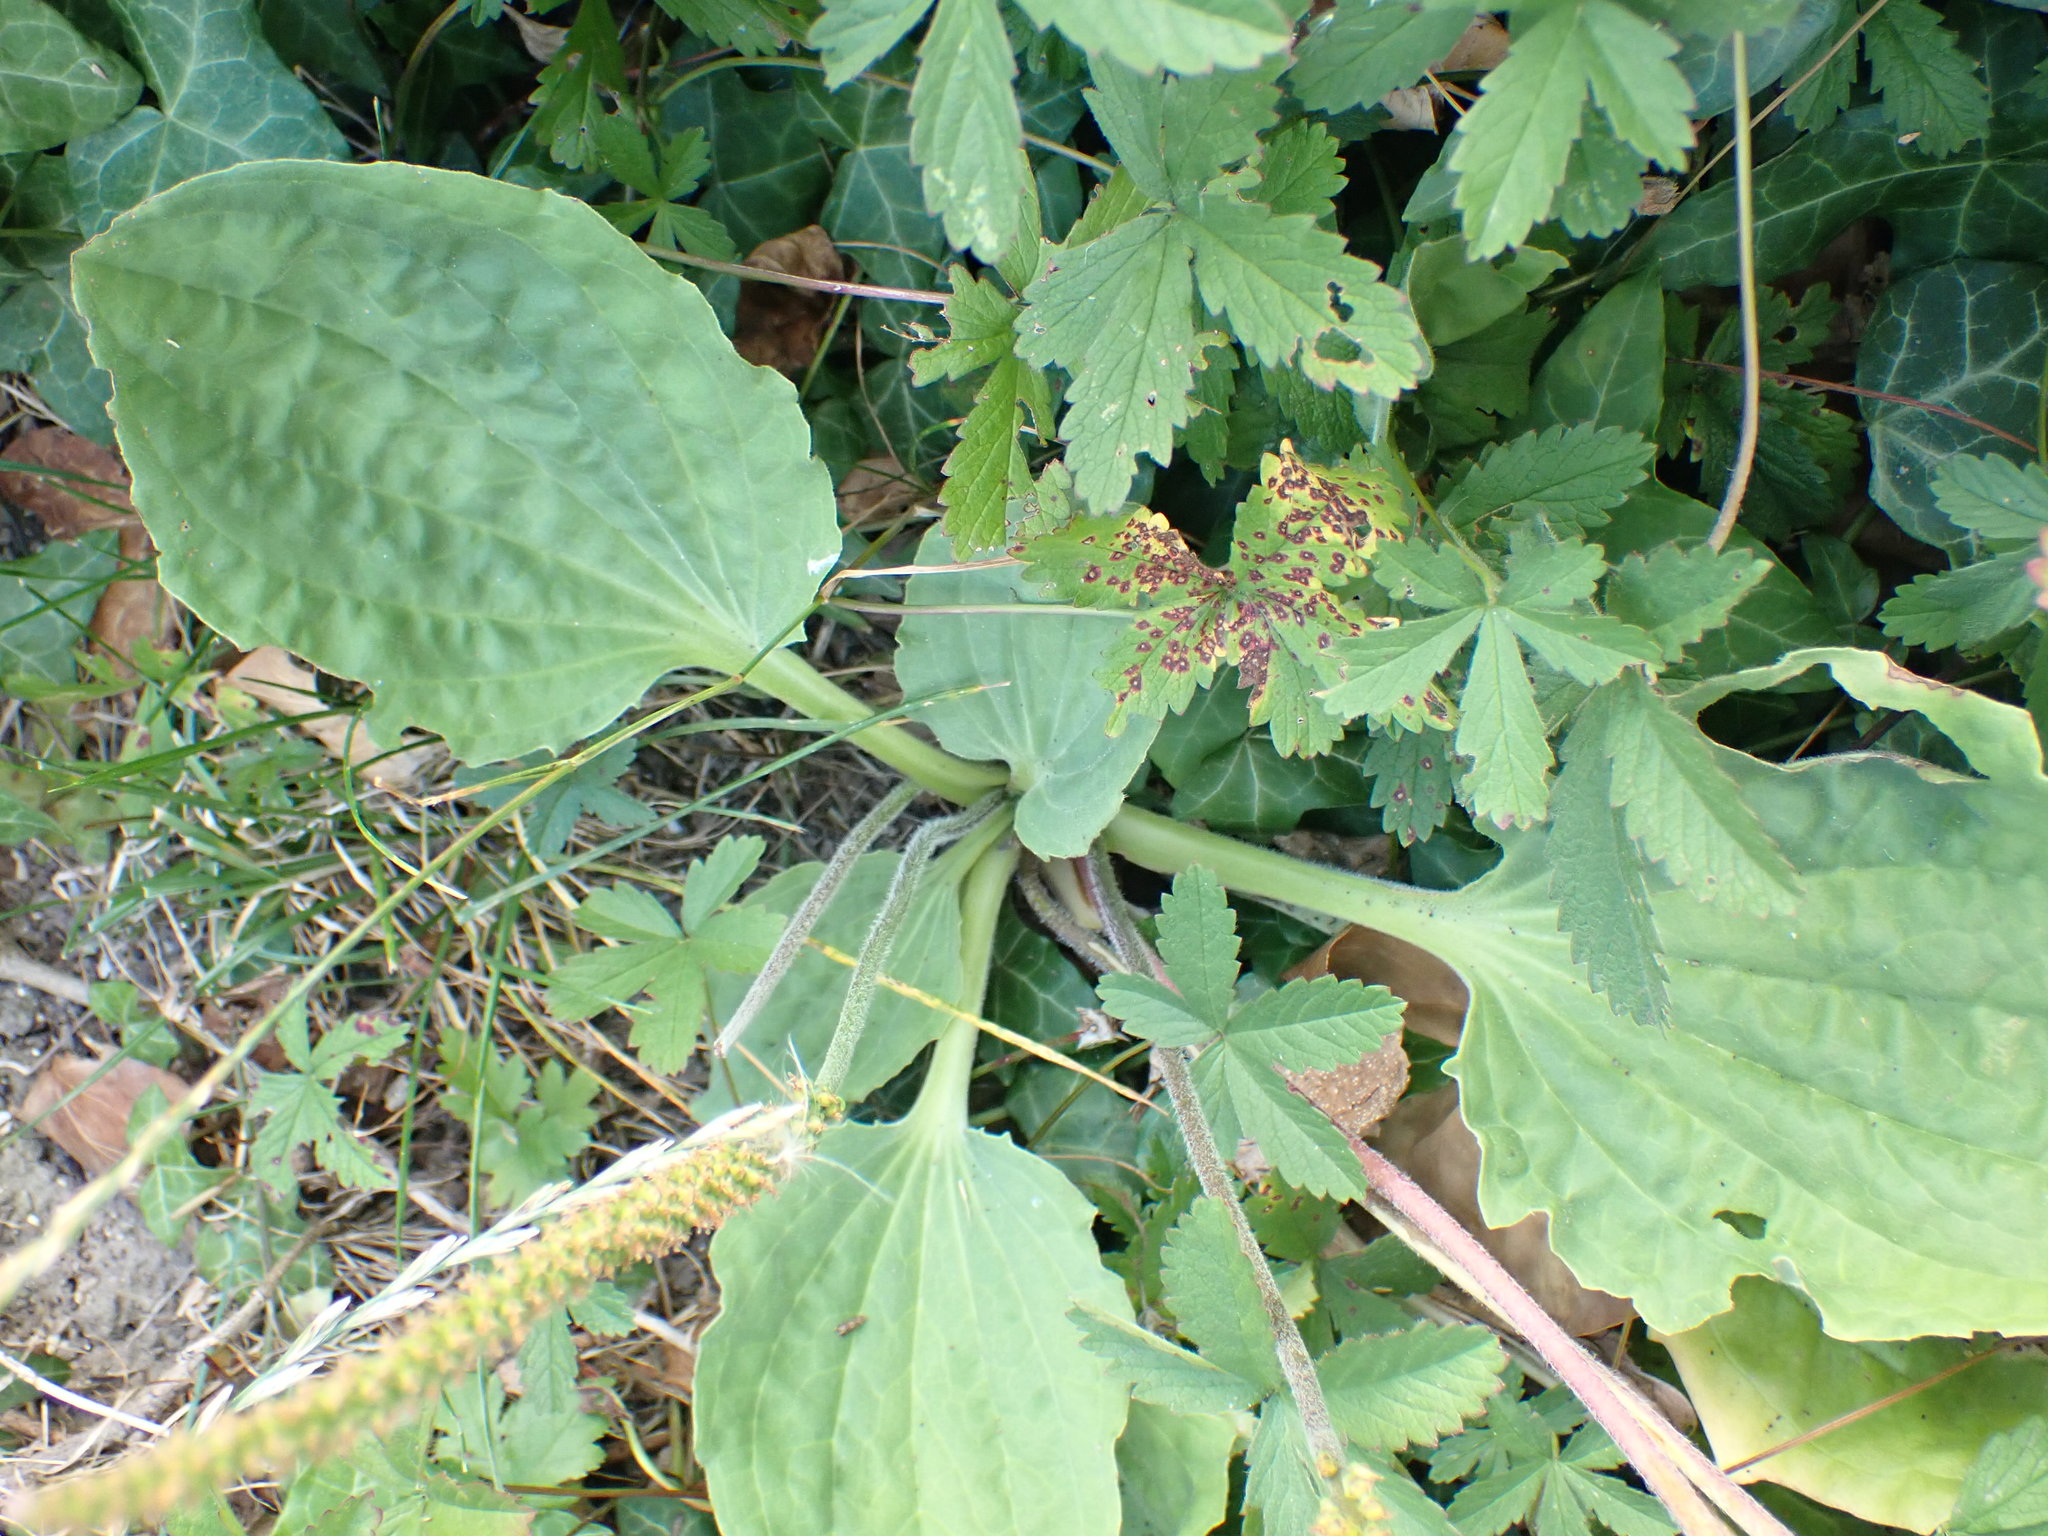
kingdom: Plantae
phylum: Tracheophyta
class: Magnoliopsida
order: Lamiales
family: Plantaginaceae
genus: Plantago
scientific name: Plantago major
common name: Common plantain
